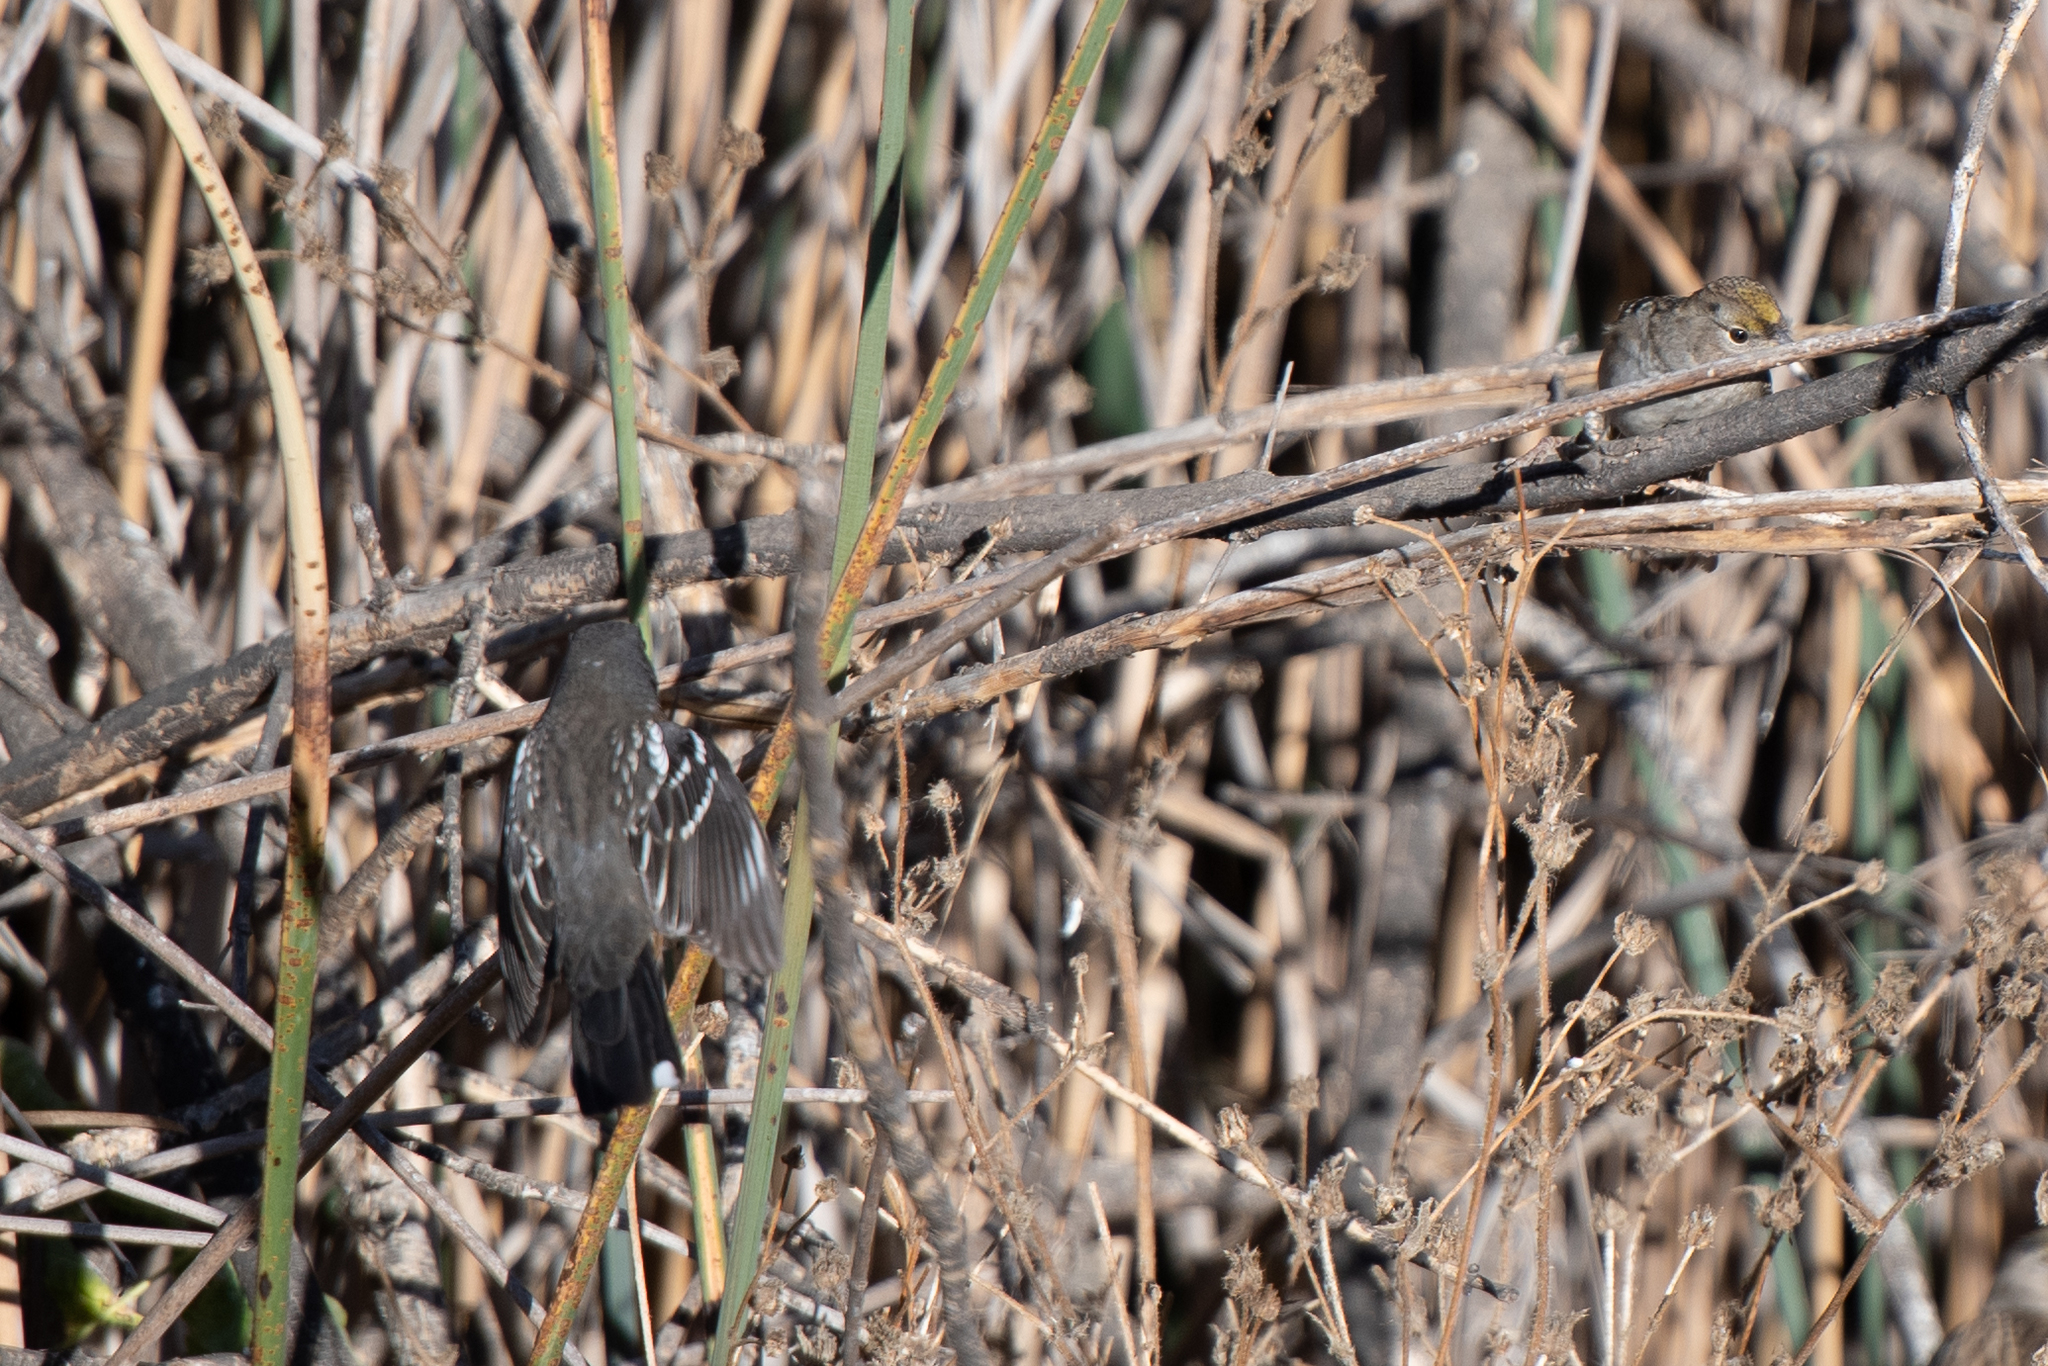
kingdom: Animalia
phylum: Chordata
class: Aves
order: Passeriformes
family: Passerellidae
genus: Pipilo
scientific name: Pipilo maculatus
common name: Spotted towhee
